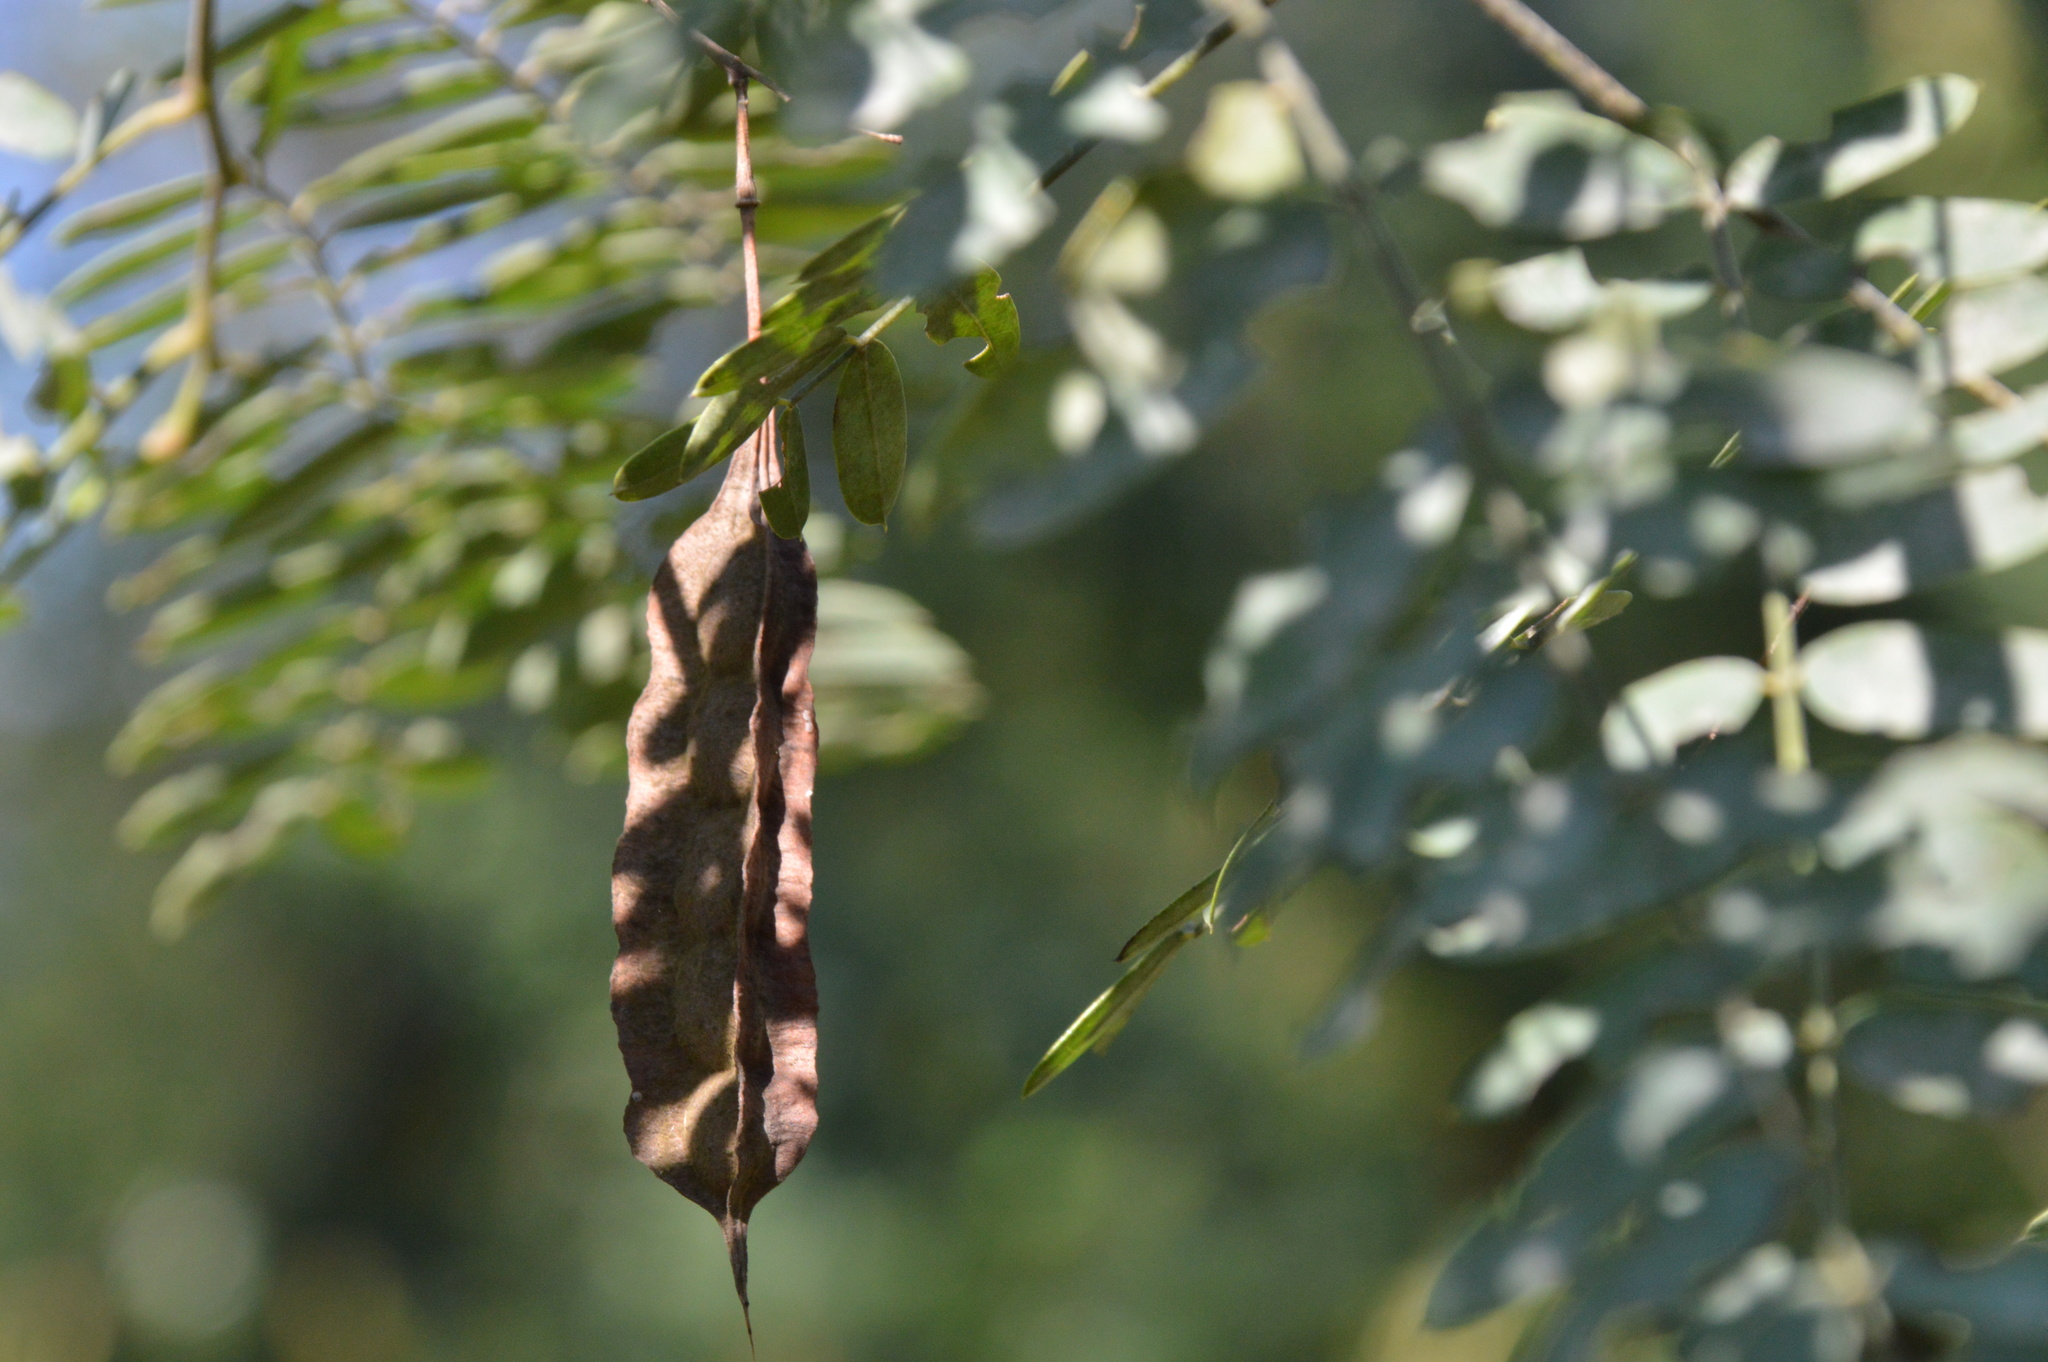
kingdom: Plantae
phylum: Tracheophyta
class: Magnoliopsida
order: Fabales
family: Fabaceae
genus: Sesbania
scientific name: Sesbania drummondii
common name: Poison-bean
